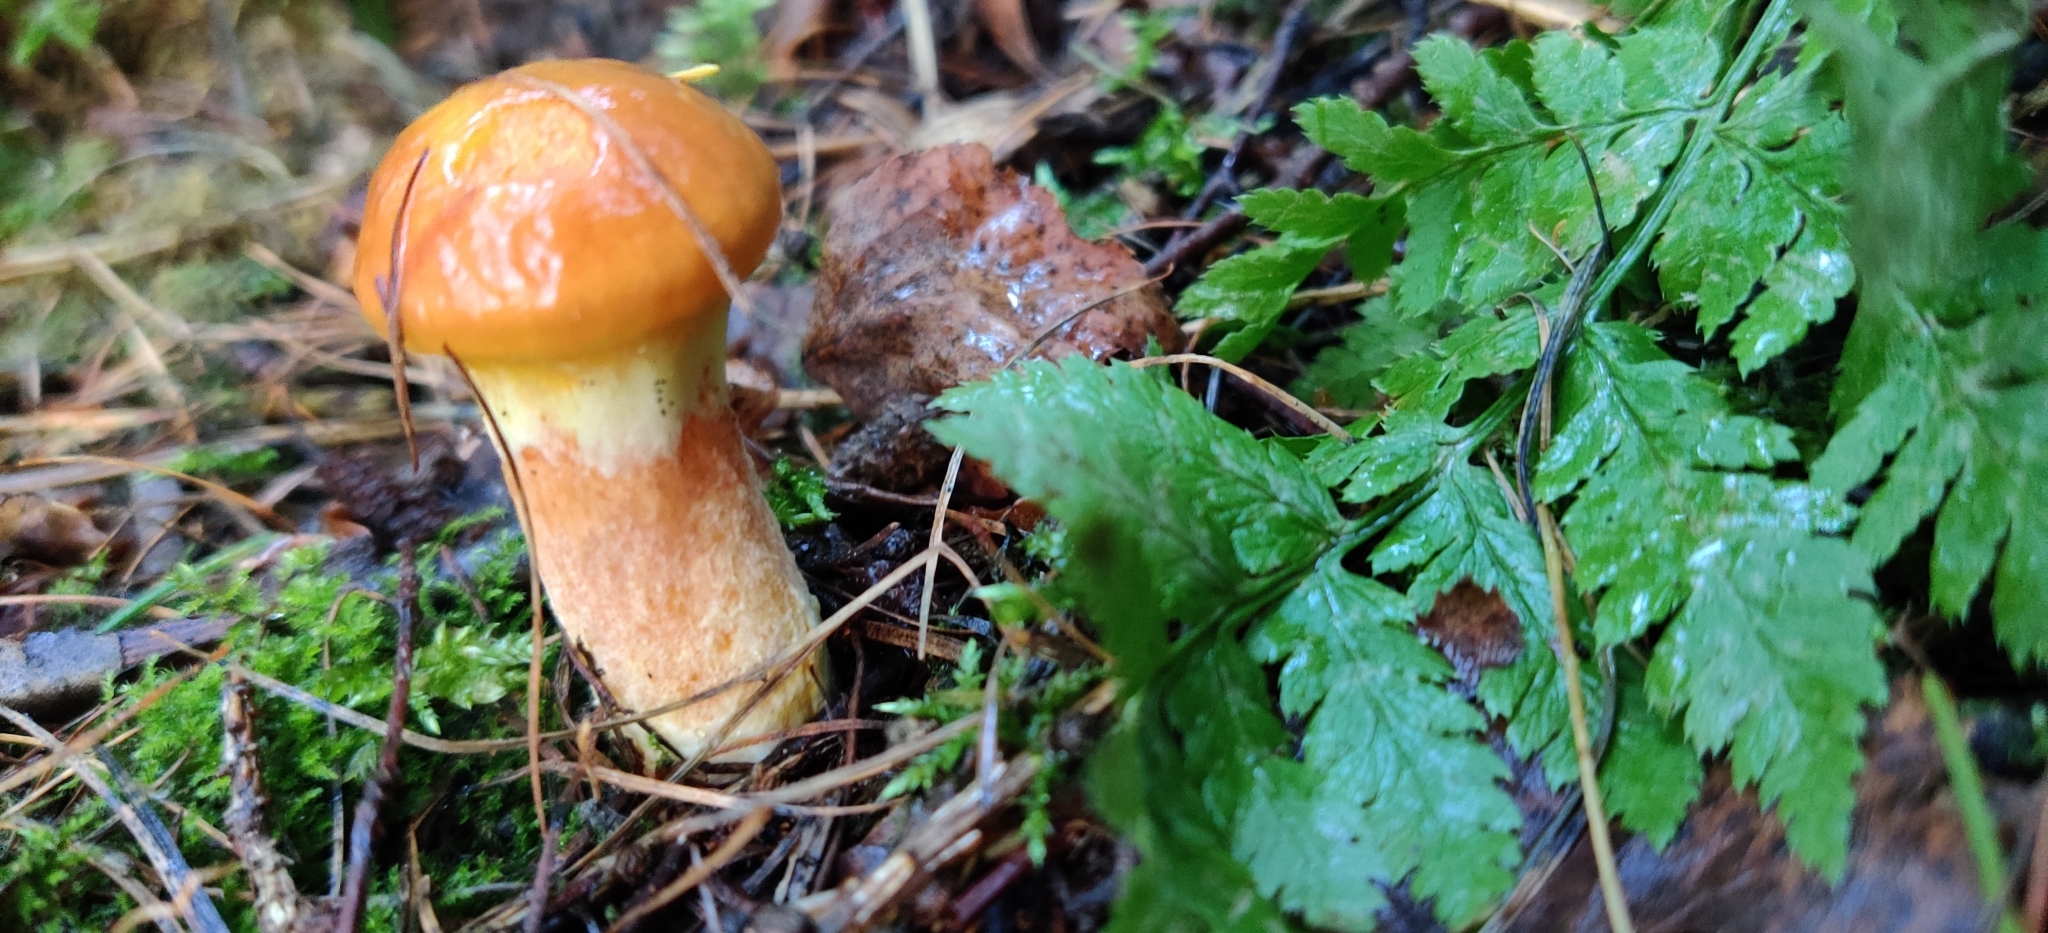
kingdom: Fungi
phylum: Basidiomycota
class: Agaricomycetes
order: Boletales
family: Suillaceae
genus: Suillus
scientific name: Suillus grevillei
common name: Larch bolete
